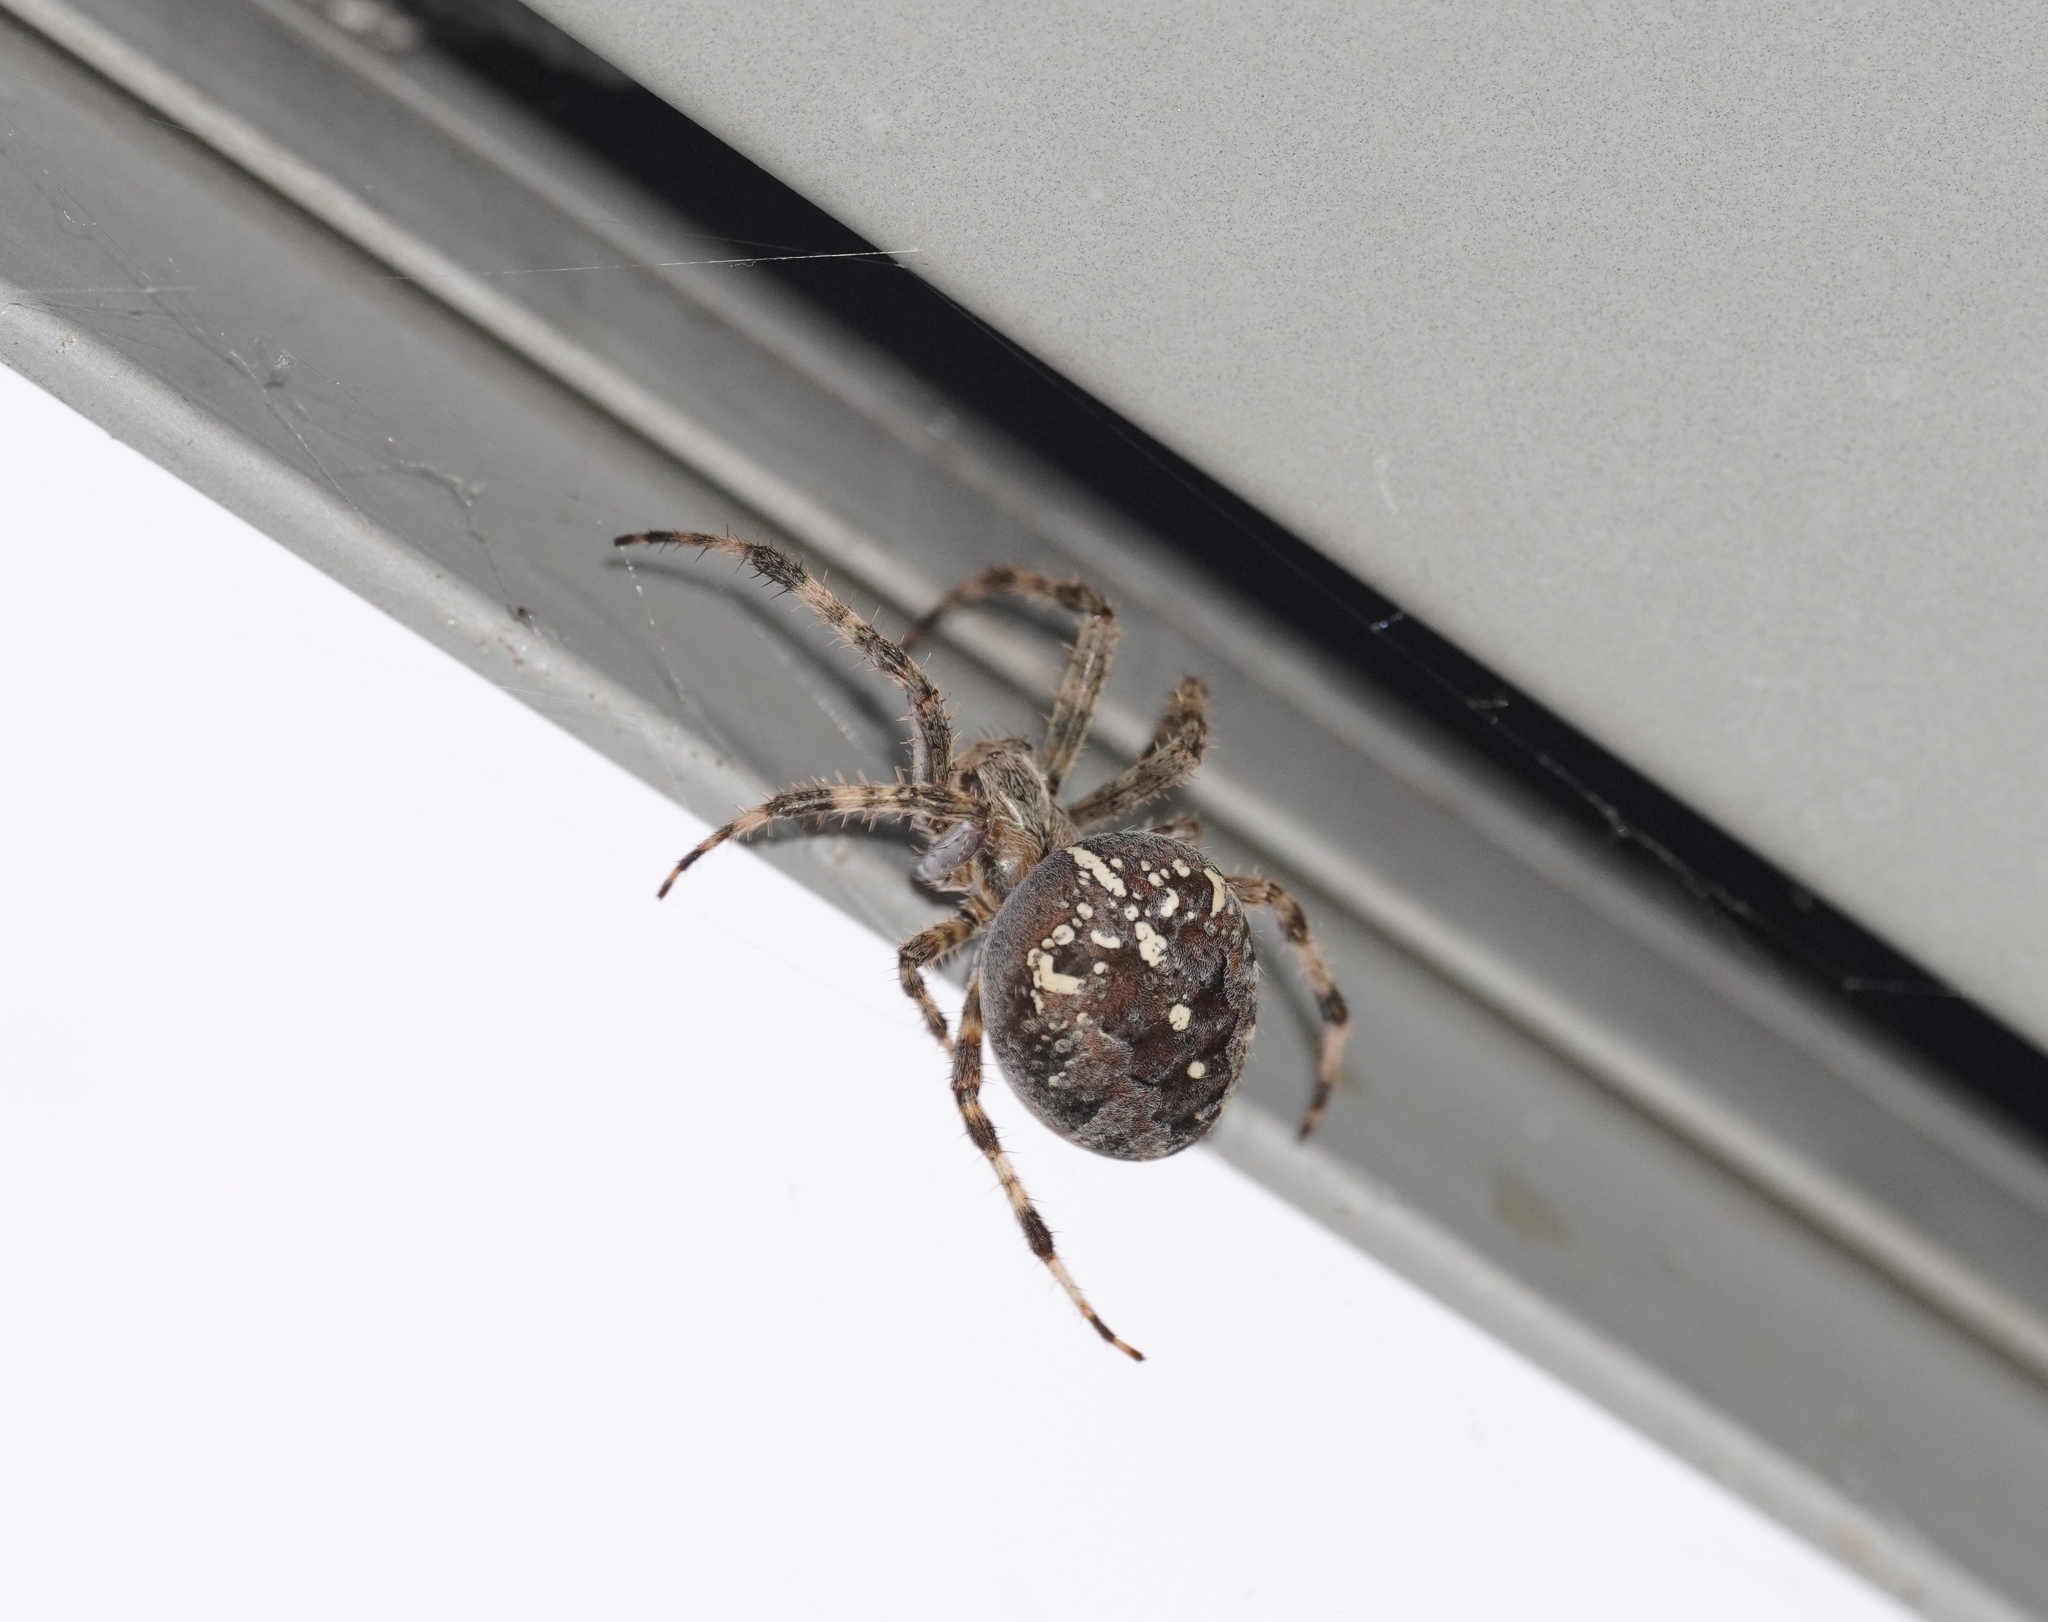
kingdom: Animalia
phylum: Arthropoda
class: Arachnida
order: Araneae
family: Araneidae
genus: Araneus
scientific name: Araneus diadematus
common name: Cross orbweaver
